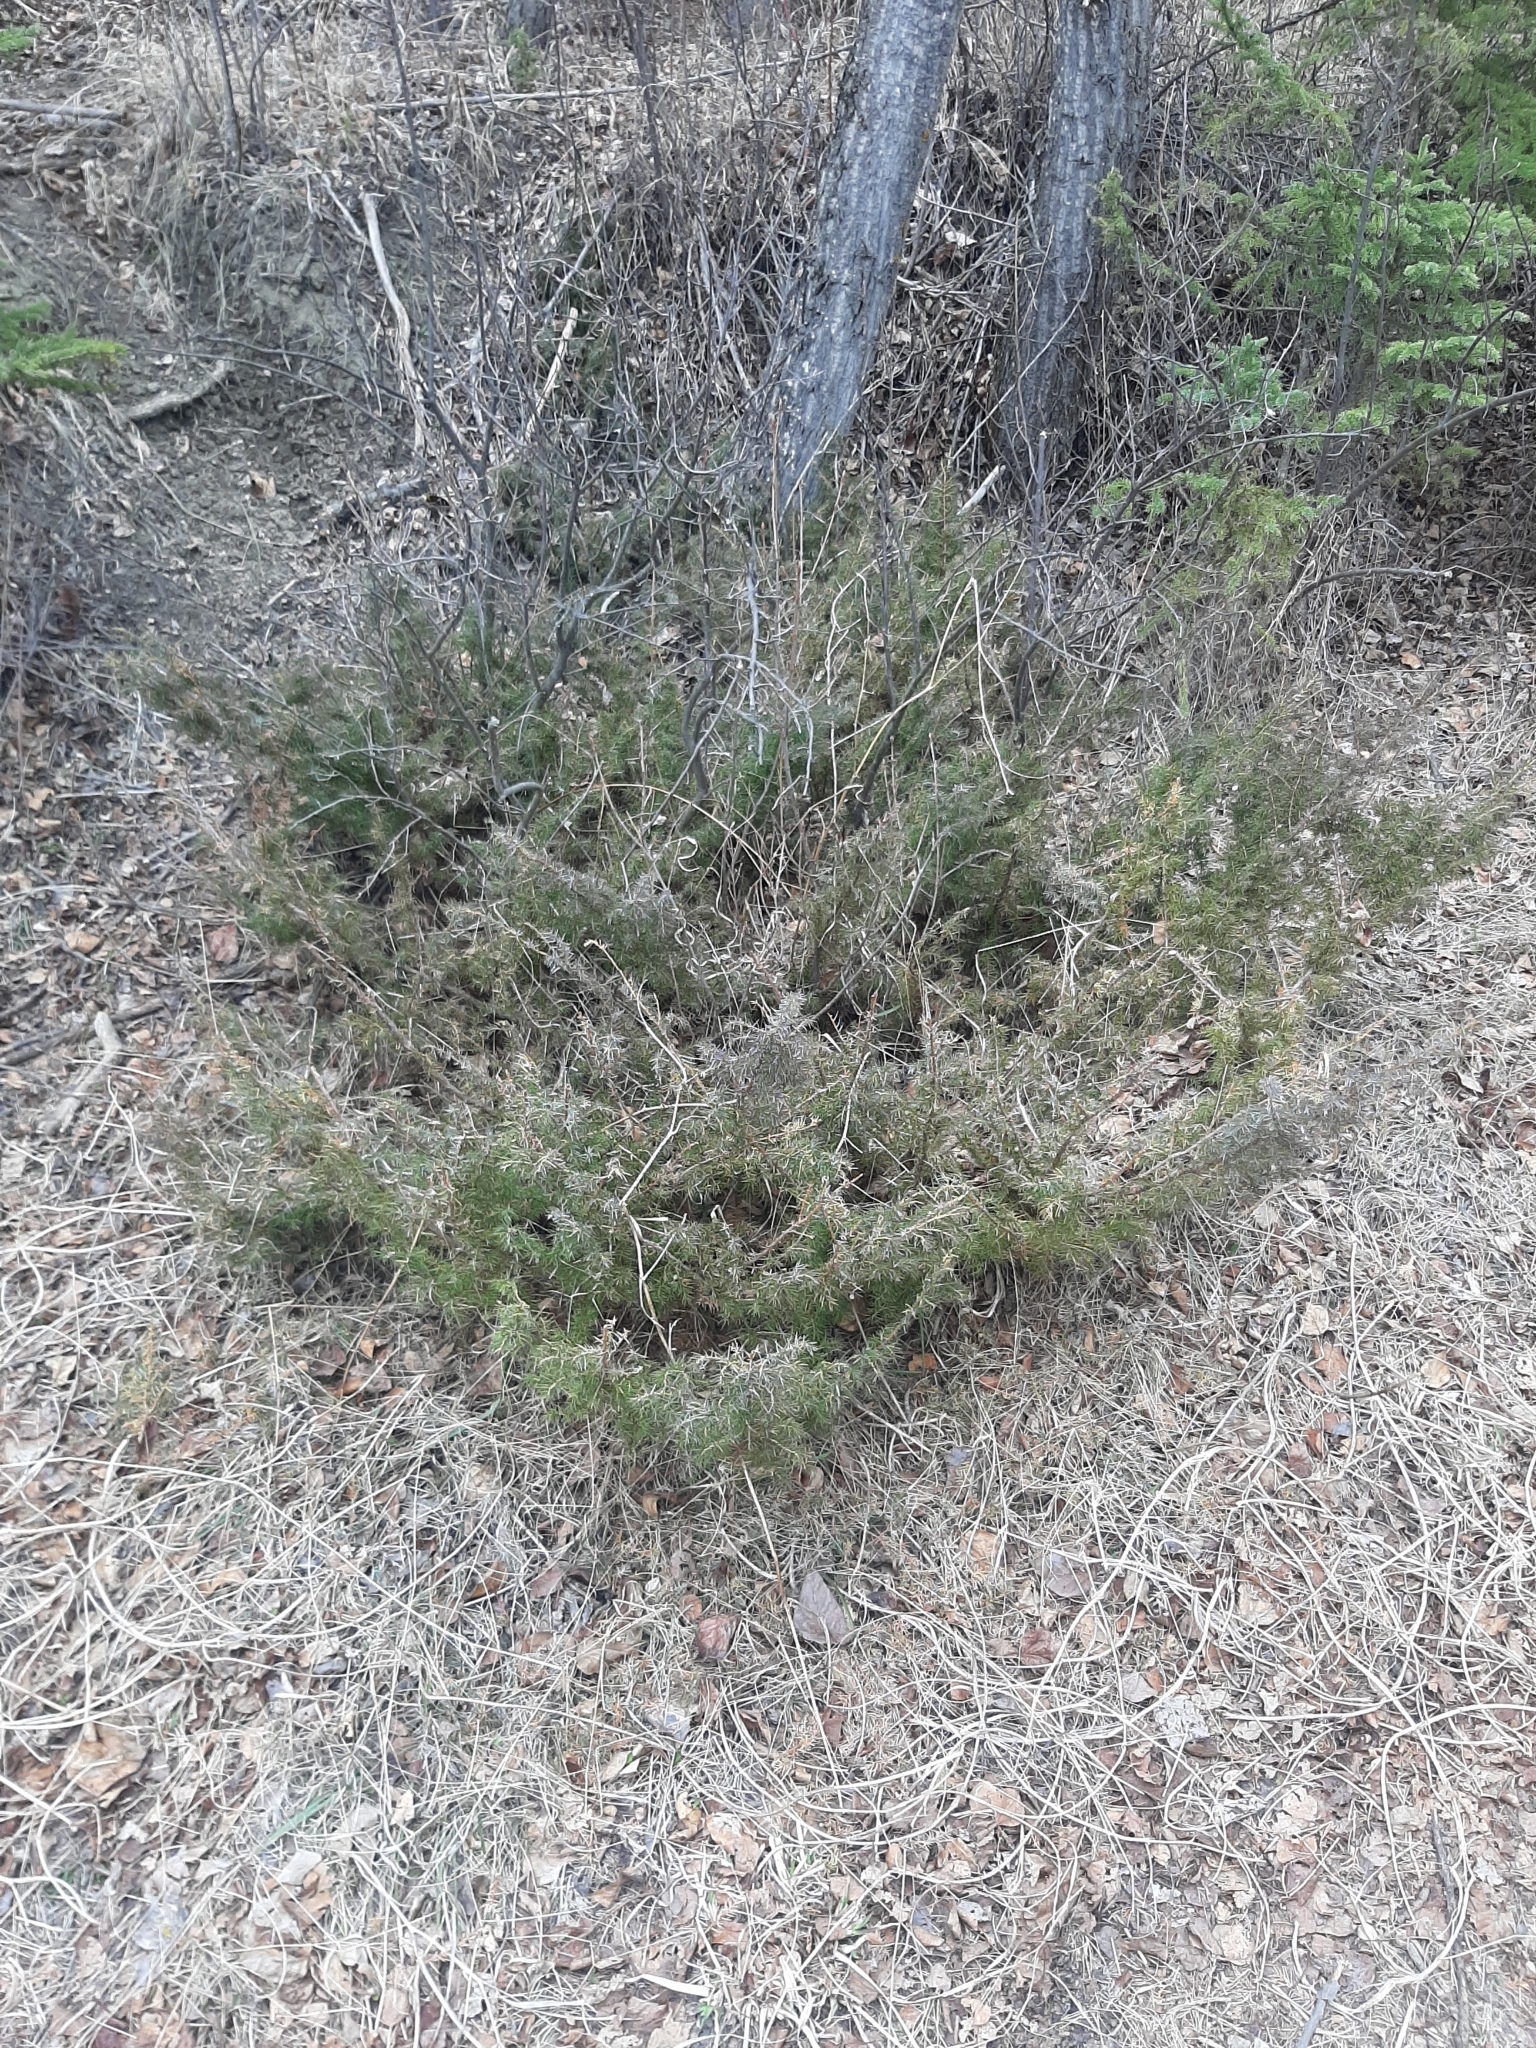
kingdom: Plantae
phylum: Tracheophyta
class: Pinopsida
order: Pinales
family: Cupressaceae
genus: Juniperus
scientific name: Juniperus communis
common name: Common juniper
